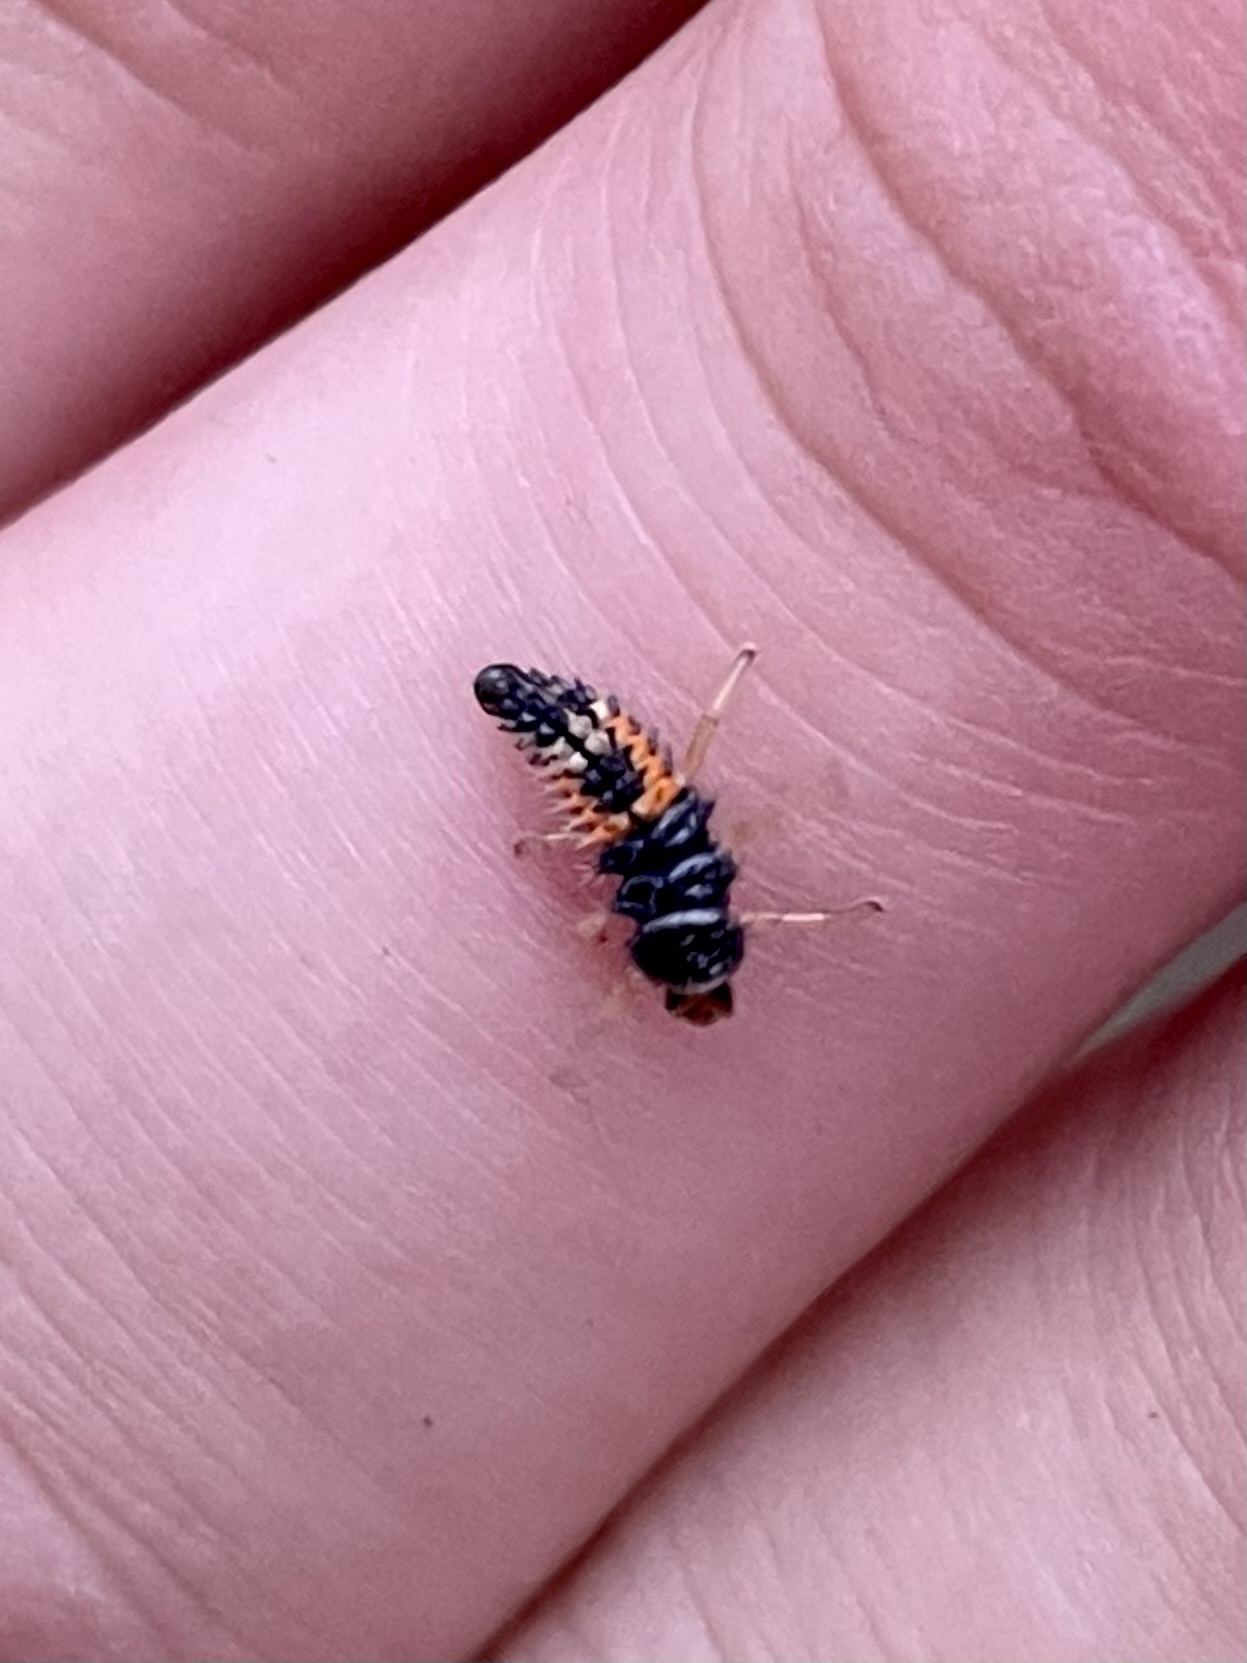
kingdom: Animalia
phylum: Arthropoda
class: Insecta
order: Coleoptera
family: Coccinellidae
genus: Harmonia
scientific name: Harmonia axyridis
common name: Harlequin ladybird
